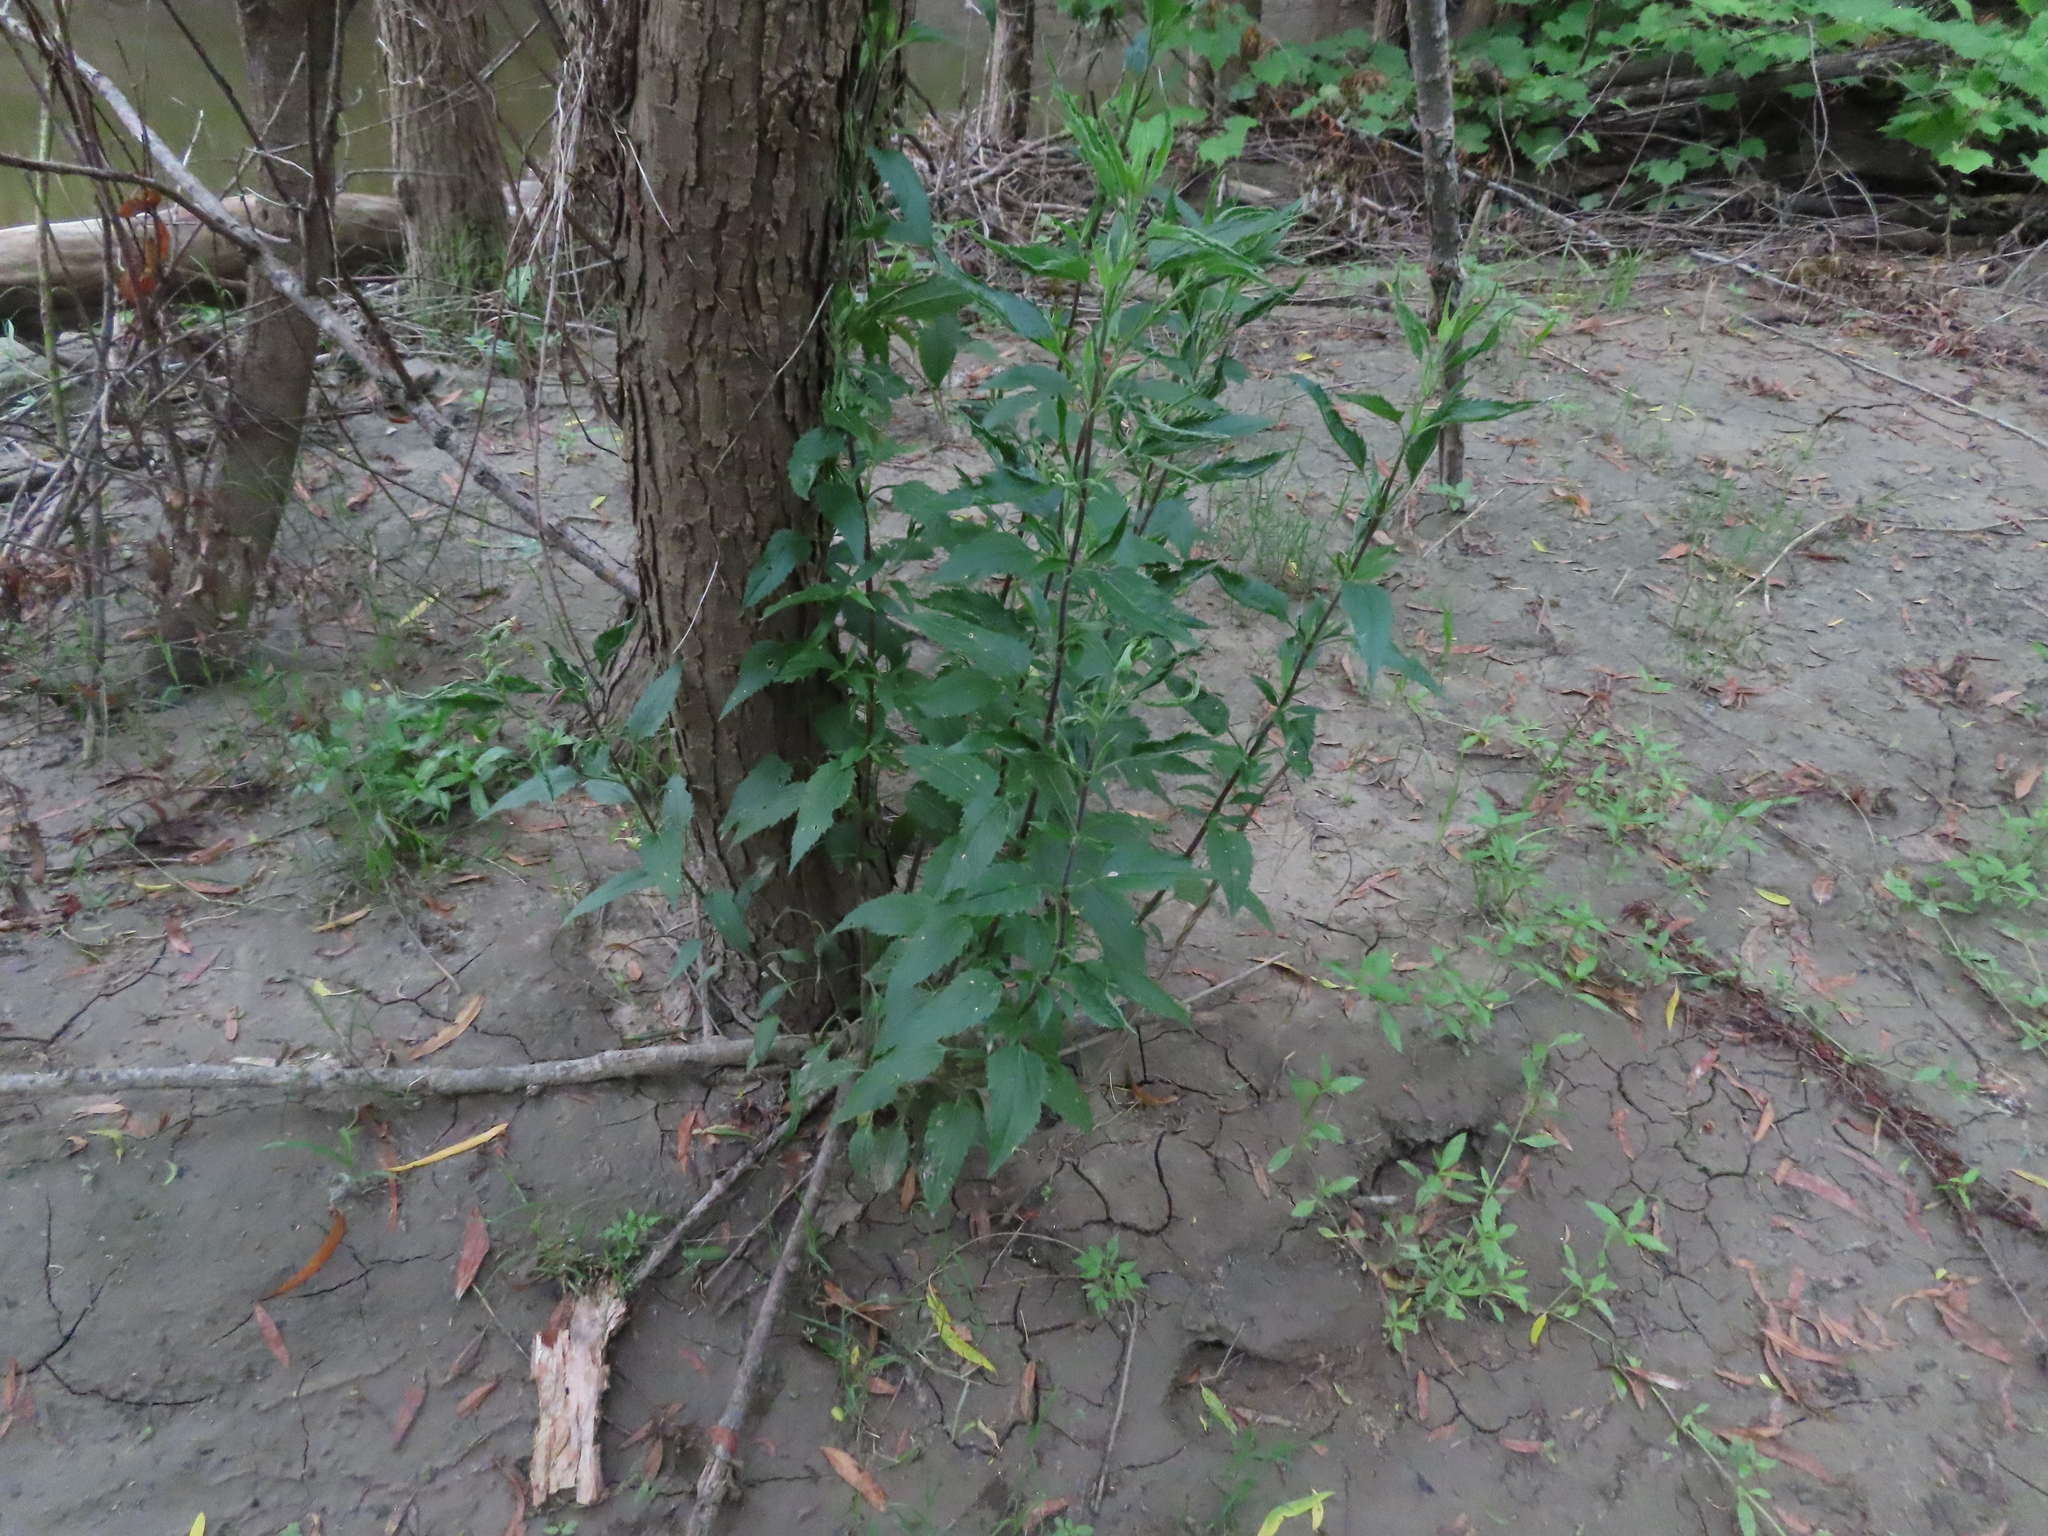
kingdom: Plantae
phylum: Tracheophyta
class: Magnoliopsida
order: Asterales
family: Asteraceae
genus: Eupatorium
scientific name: Eupatorium serotinum
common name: Late boneset
